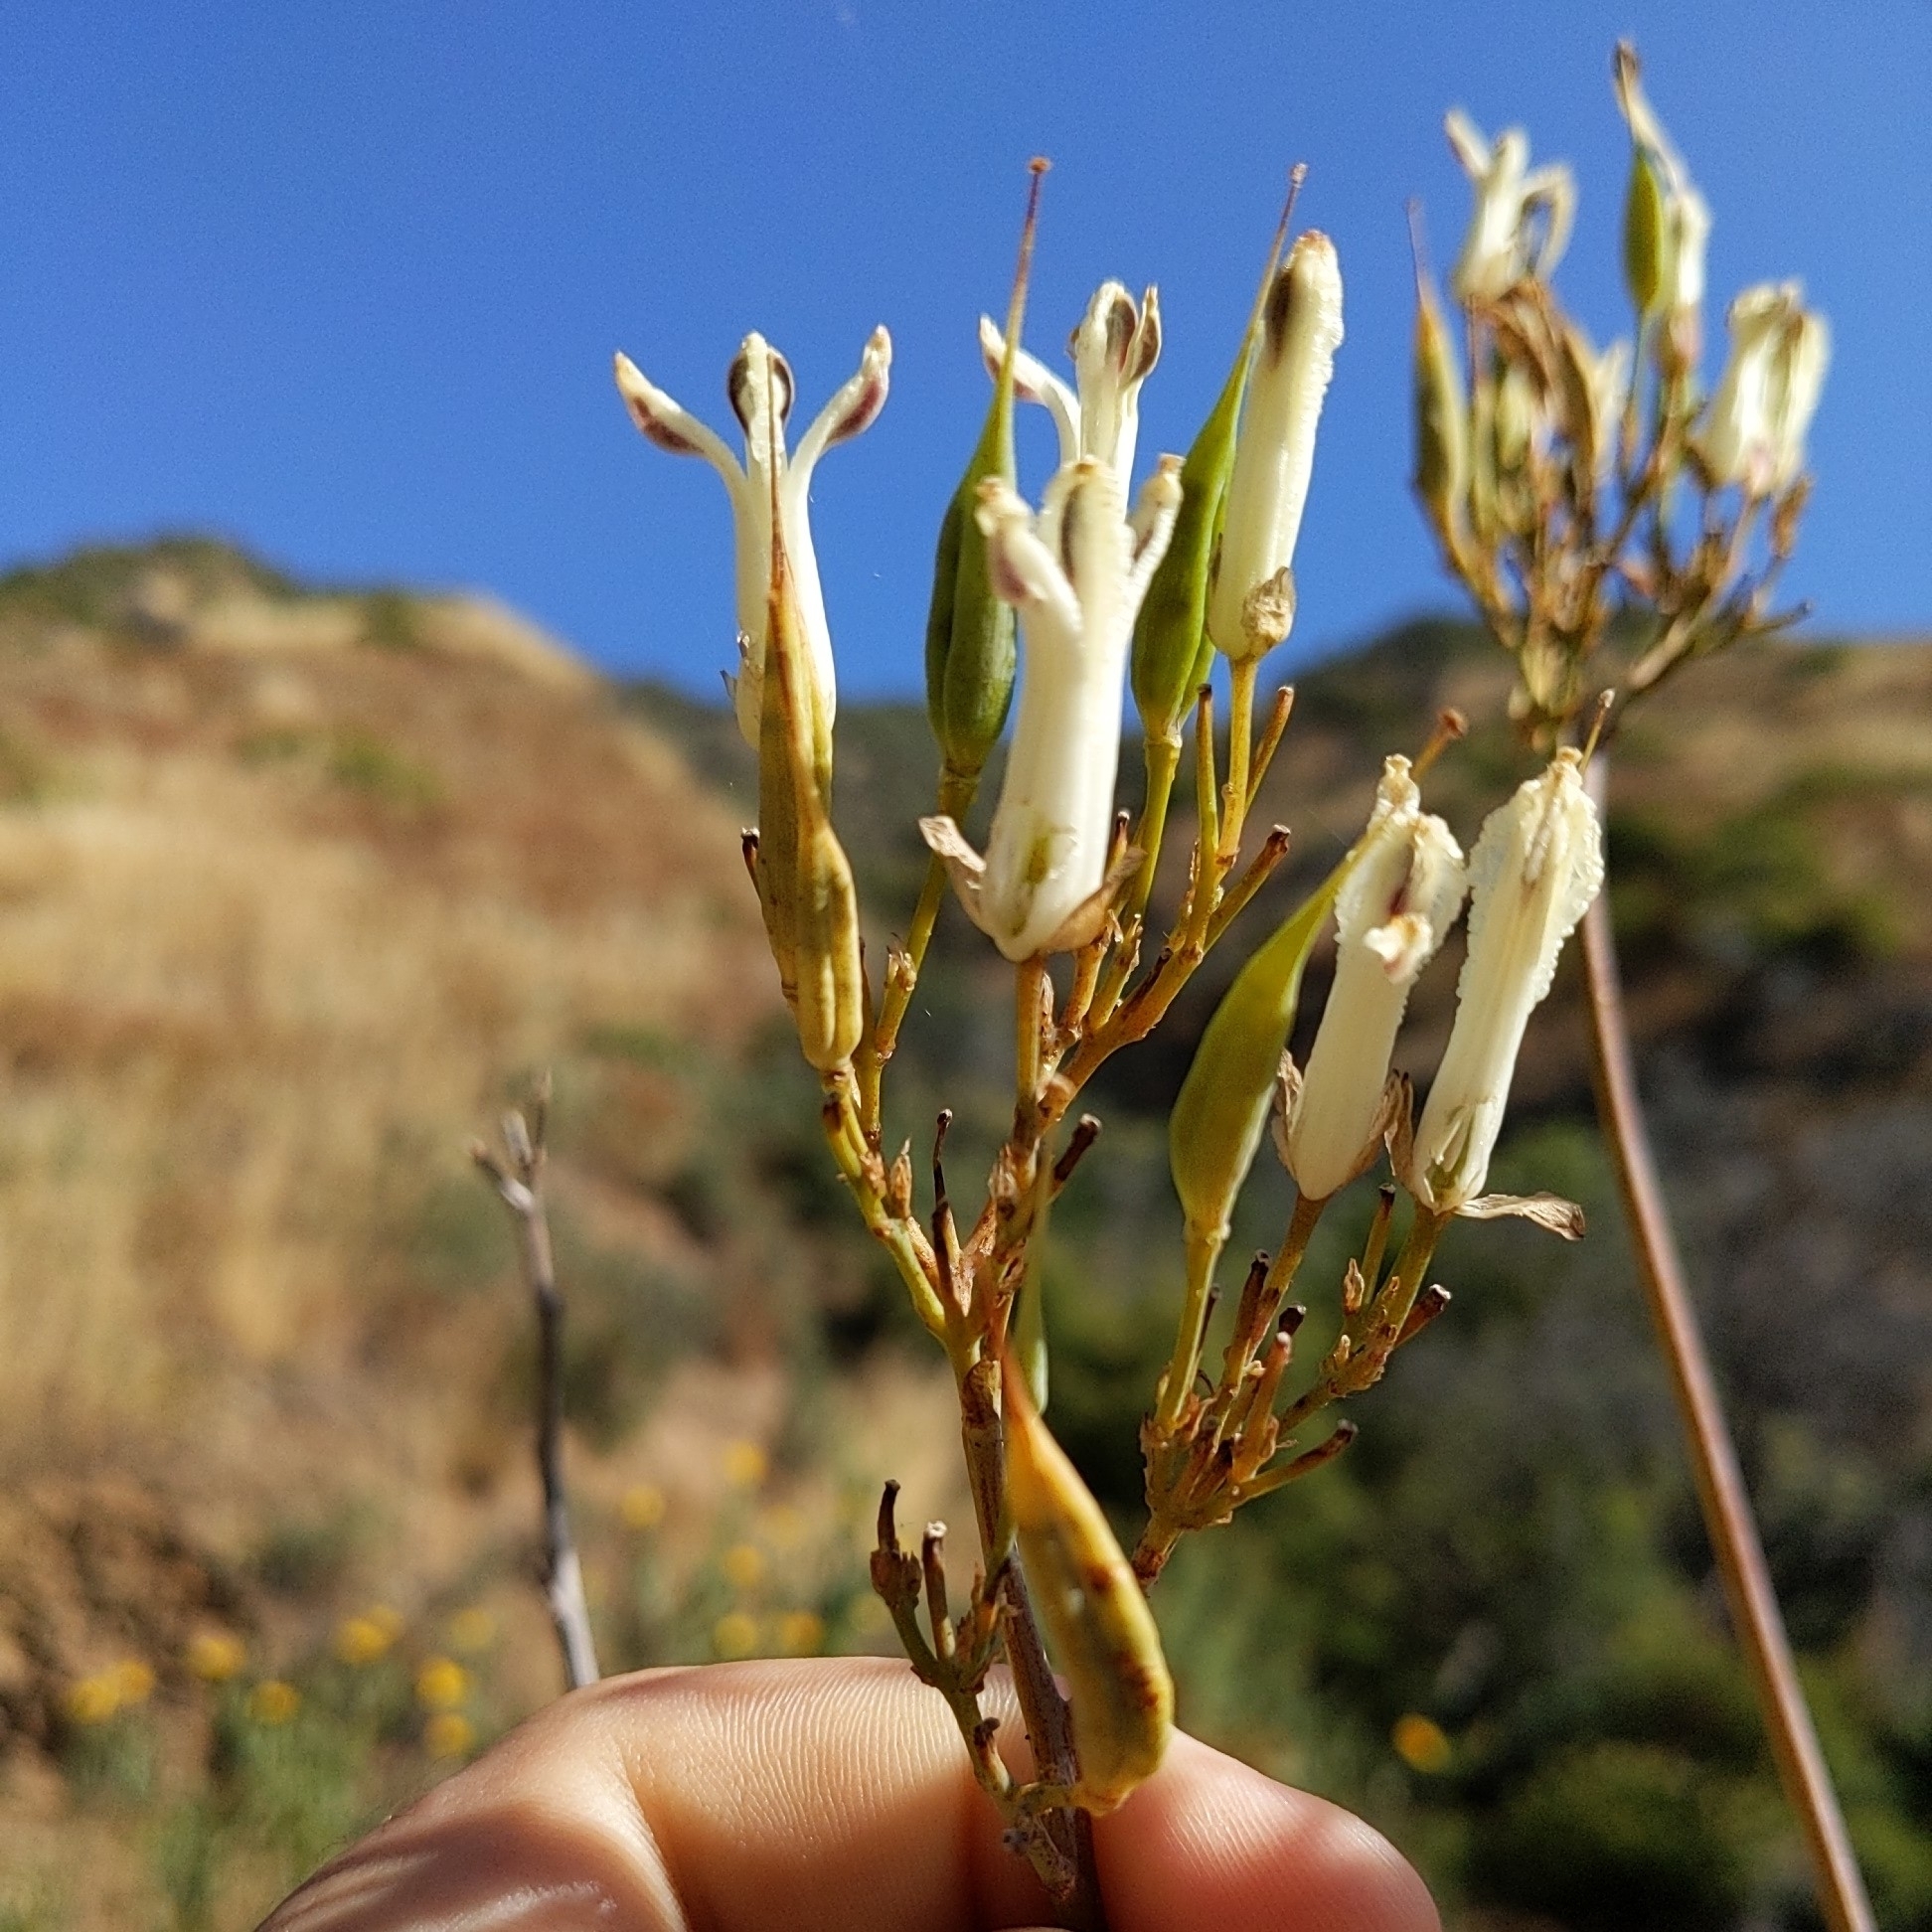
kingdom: Plantae
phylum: Tracheophyta
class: Magnoliopsida
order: Ranunculales
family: Papaveraceae
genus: Ehrendorferia
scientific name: Ehrendorferia ochroleuca
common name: White eardrops
